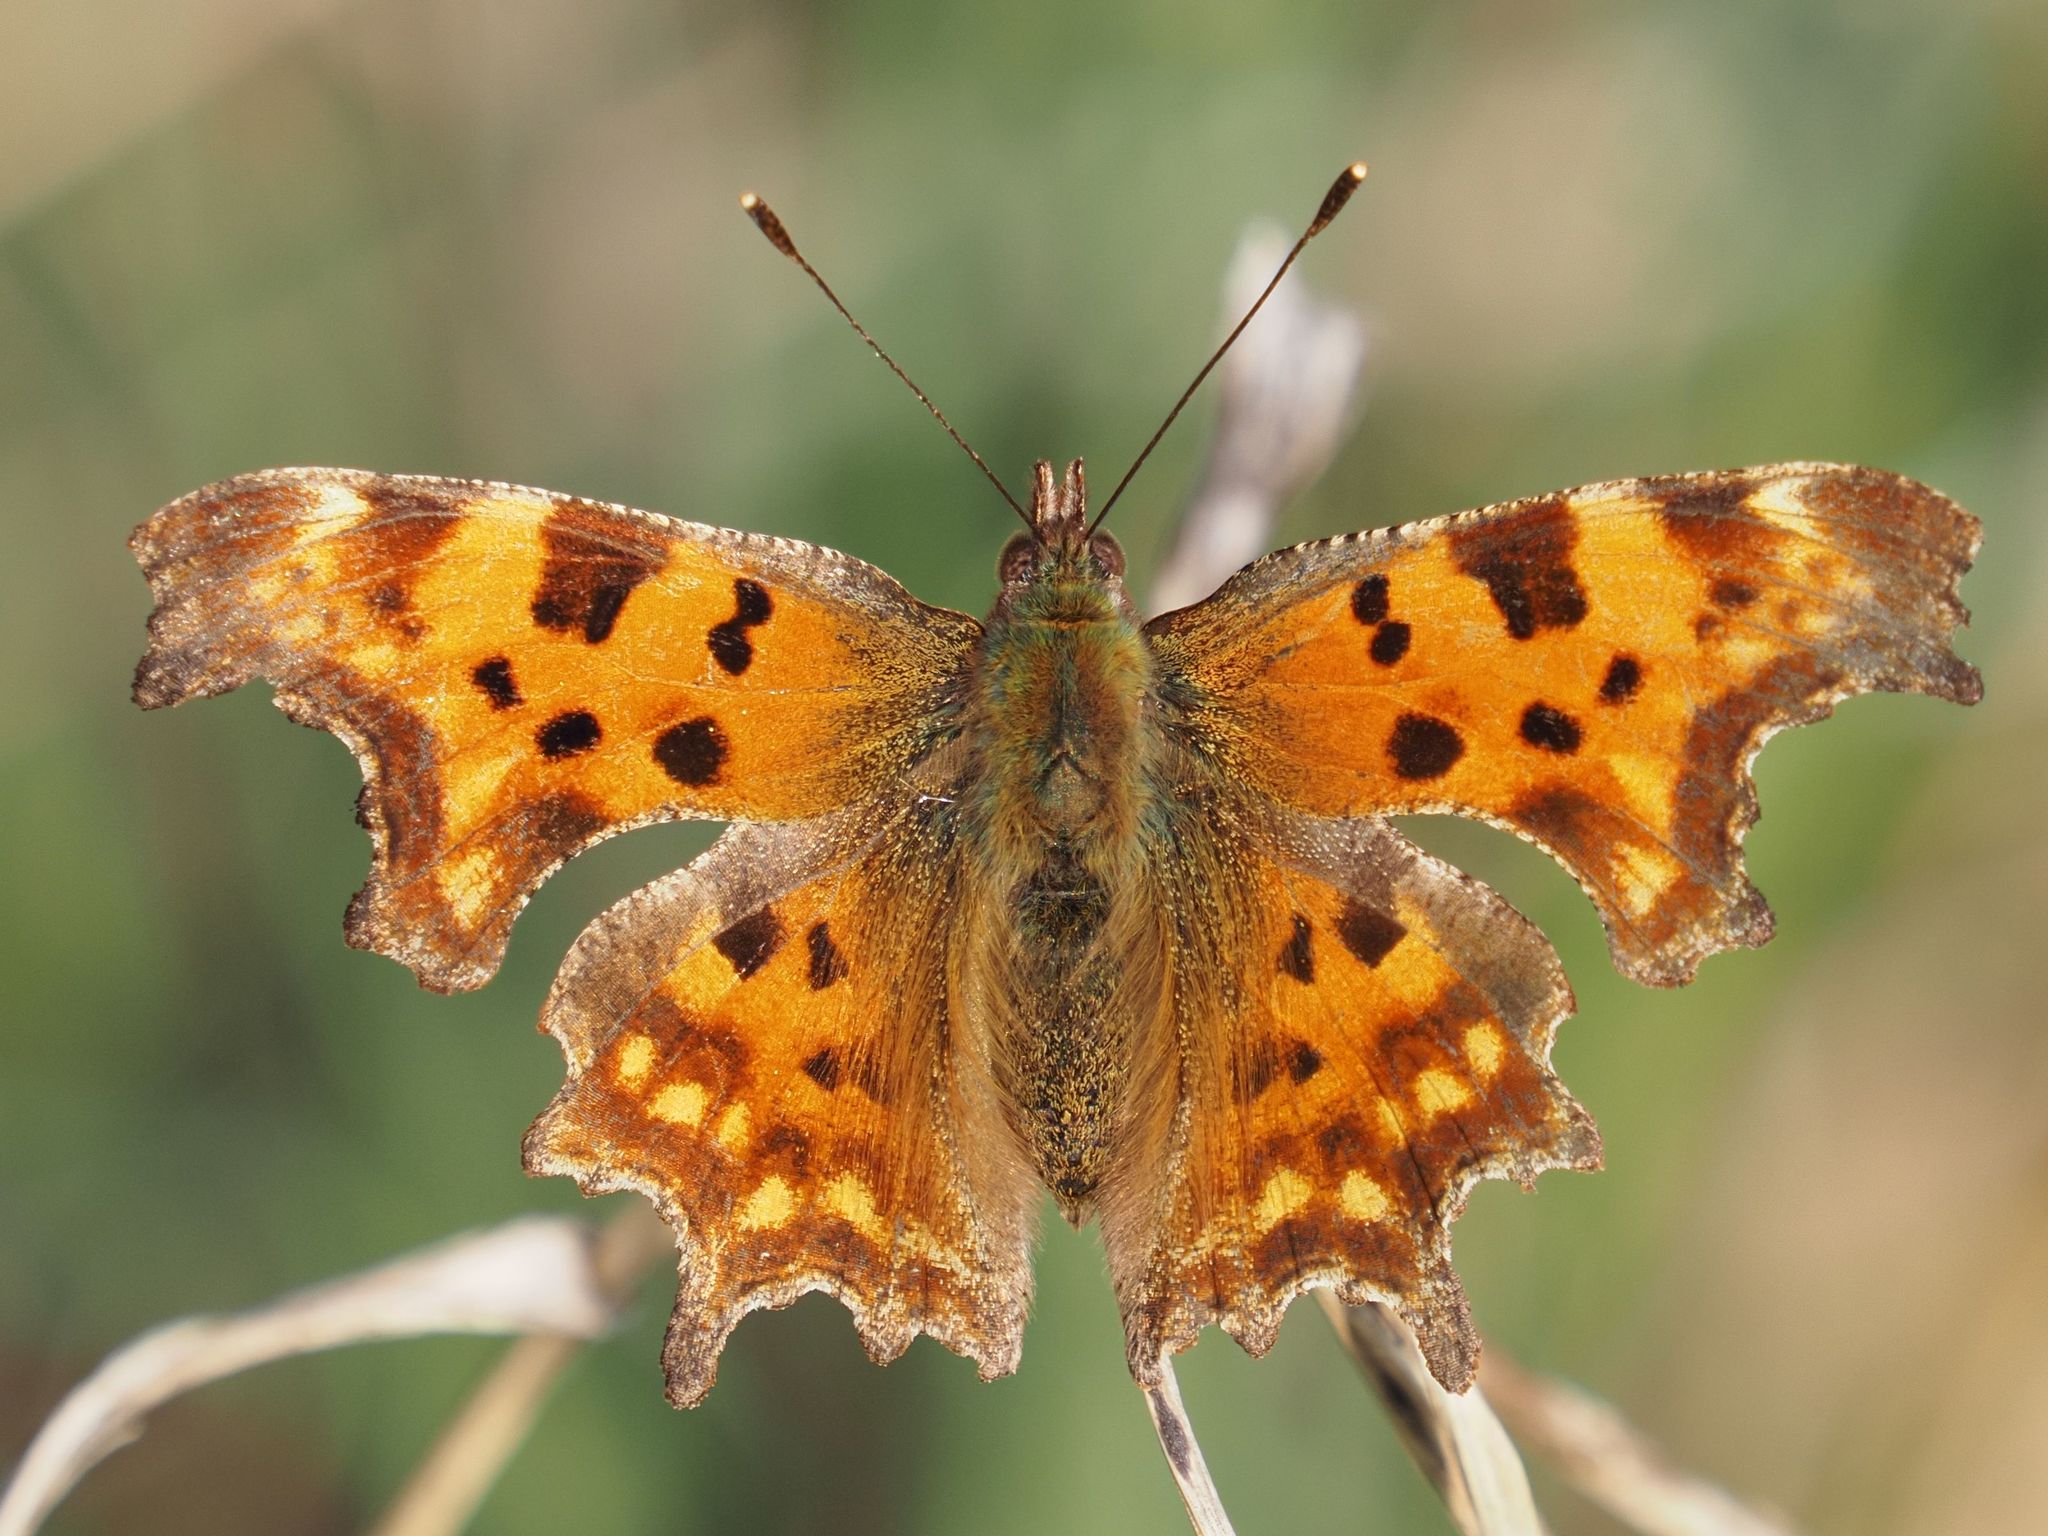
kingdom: Animalia
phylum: Arthropoda
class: Insecta
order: Lepidoptera
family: Nymphalidae
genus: Polygonia
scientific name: Polygonia c-album
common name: Comma
